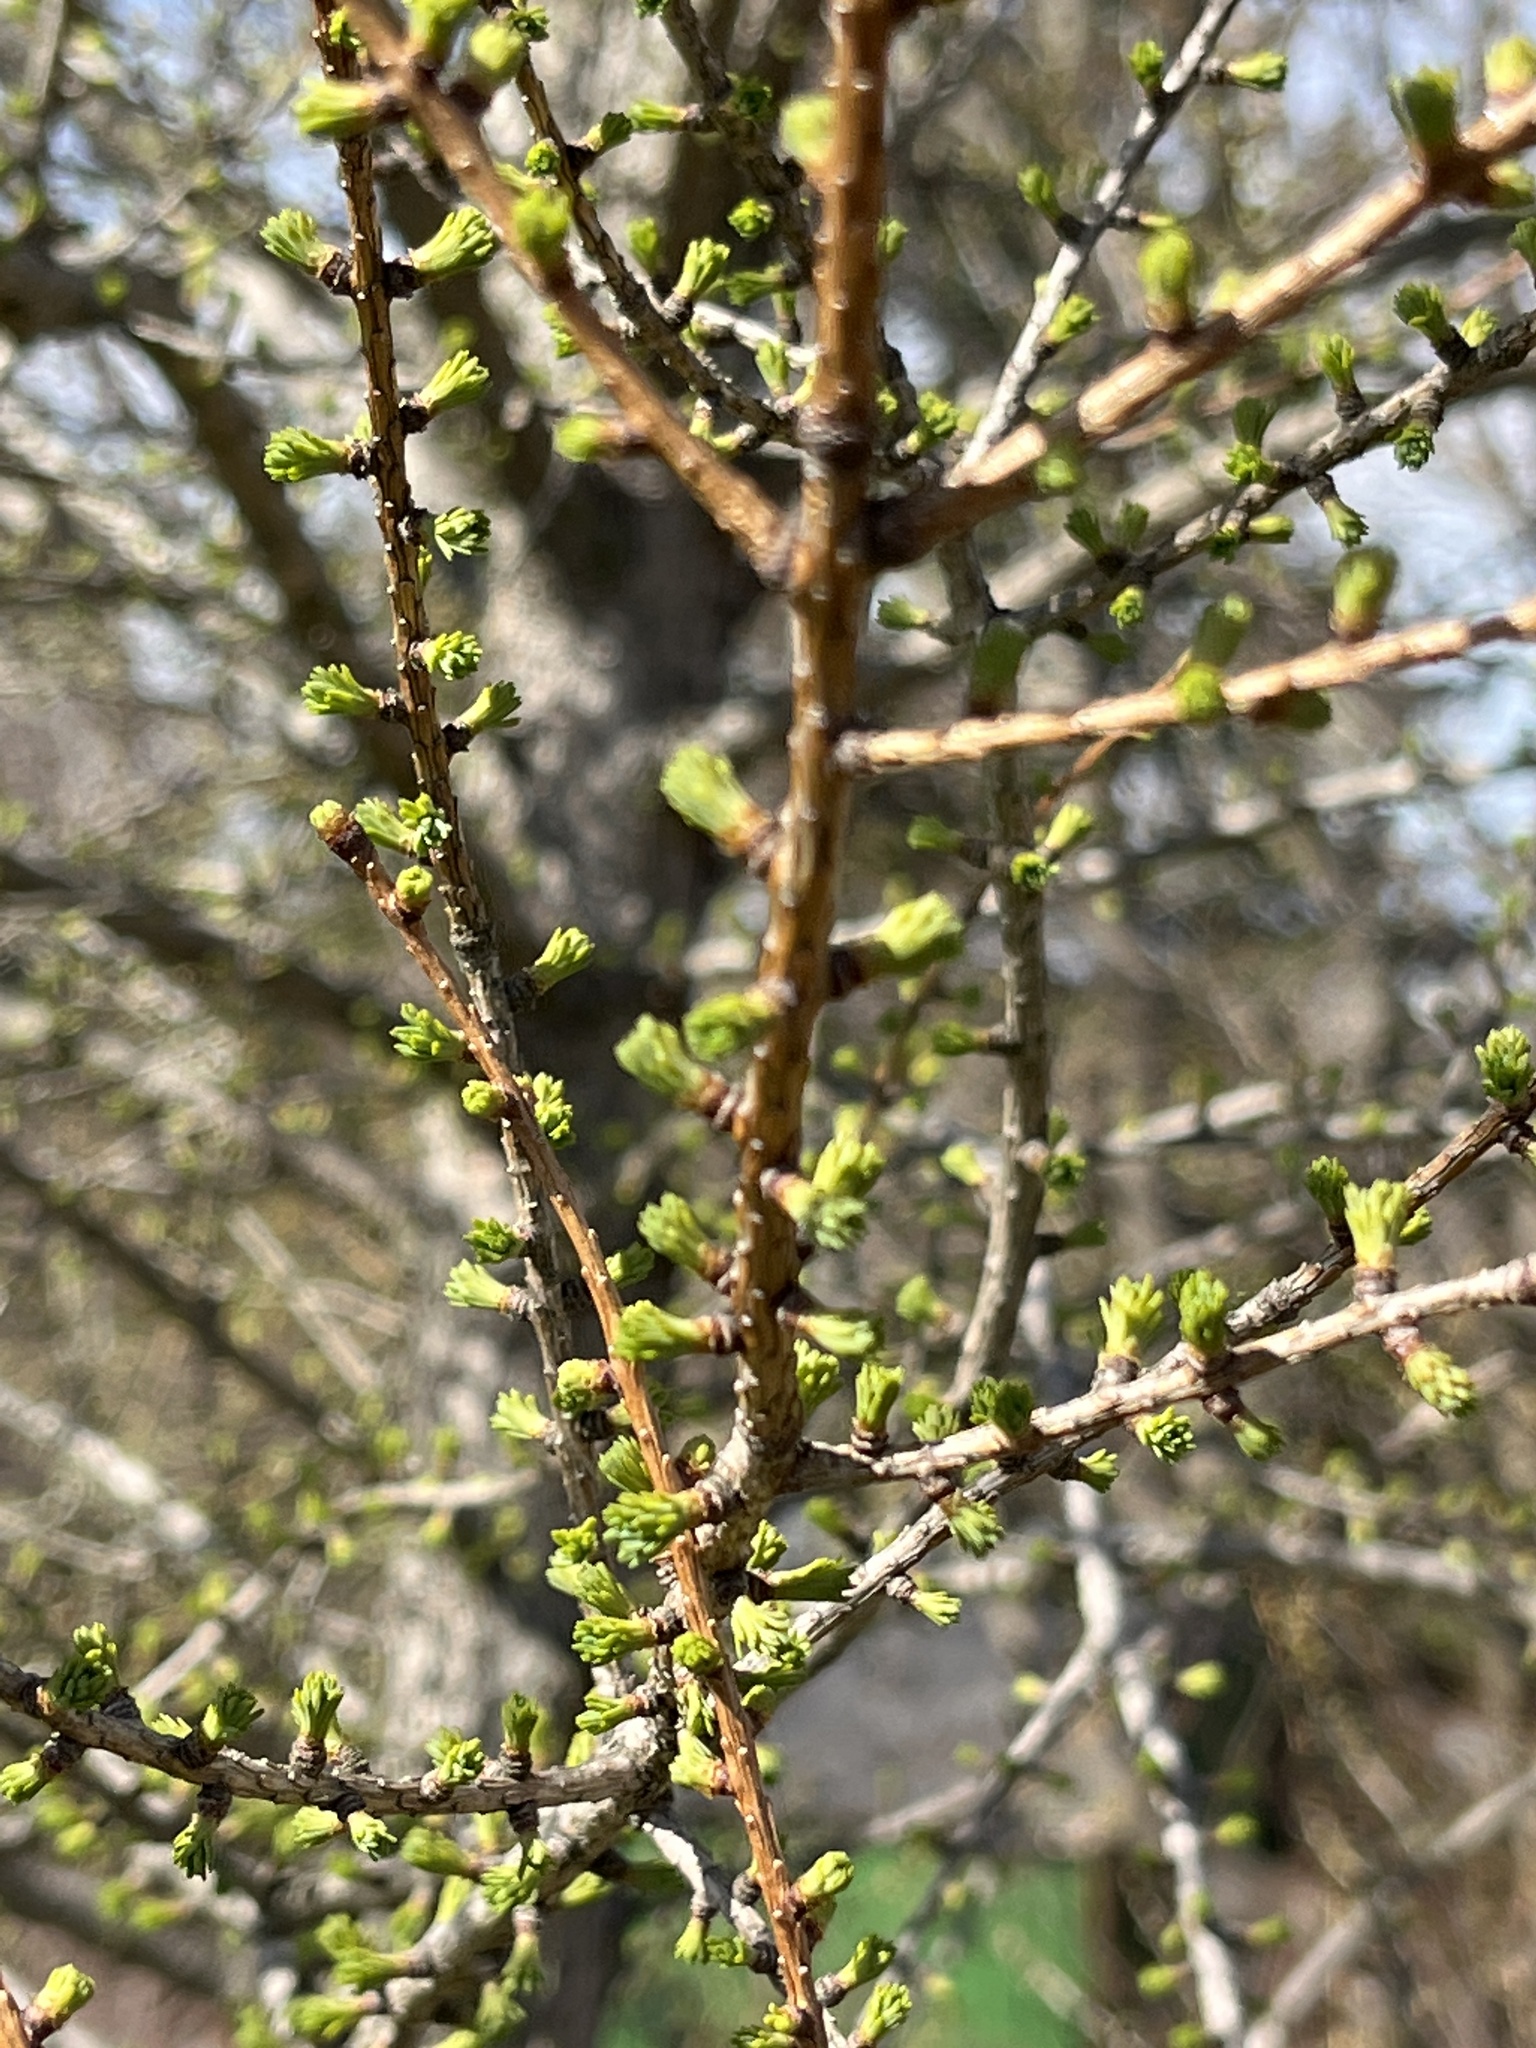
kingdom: Plantae
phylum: Tracheophyta
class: Pinopsida
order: Pinales
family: Pinaceae
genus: Larix
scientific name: Larix laricina
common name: American larch
